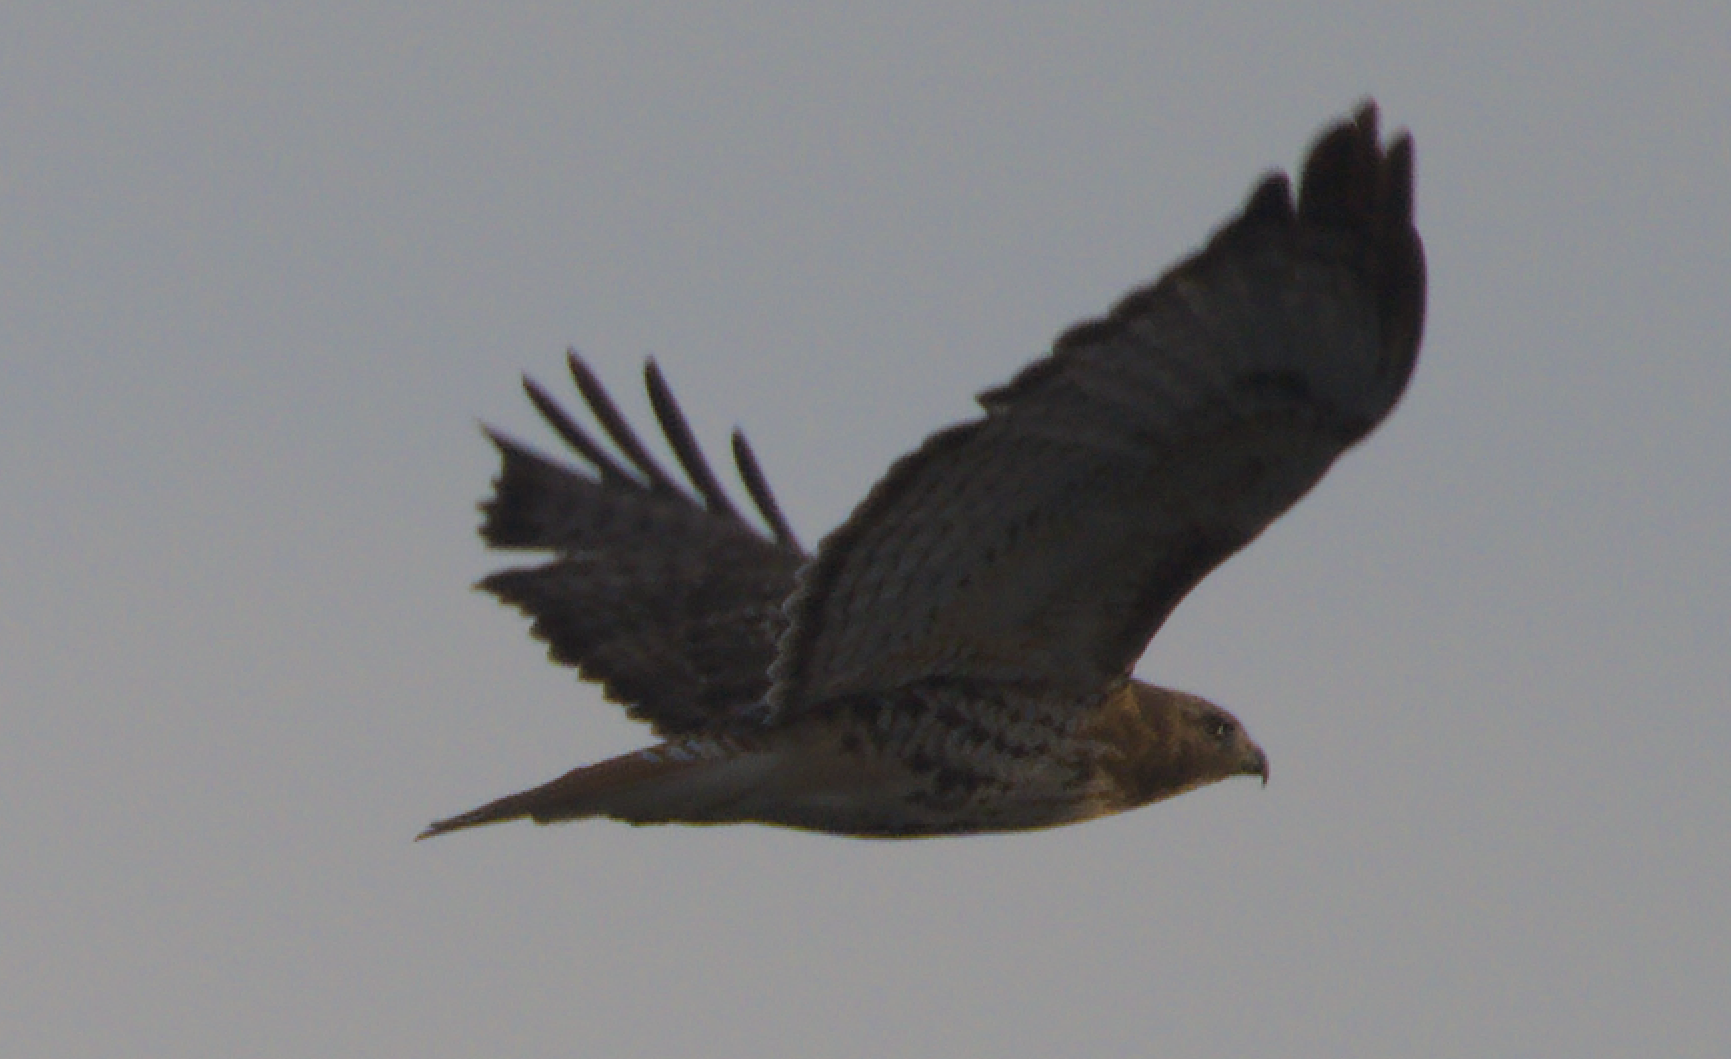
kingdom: Animalia
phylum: Chordata
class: Aves
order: Accipitriformes
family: Accipitridae
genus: Buteo
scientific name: Buteo jamaicensis
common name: Red-tailed hawk
